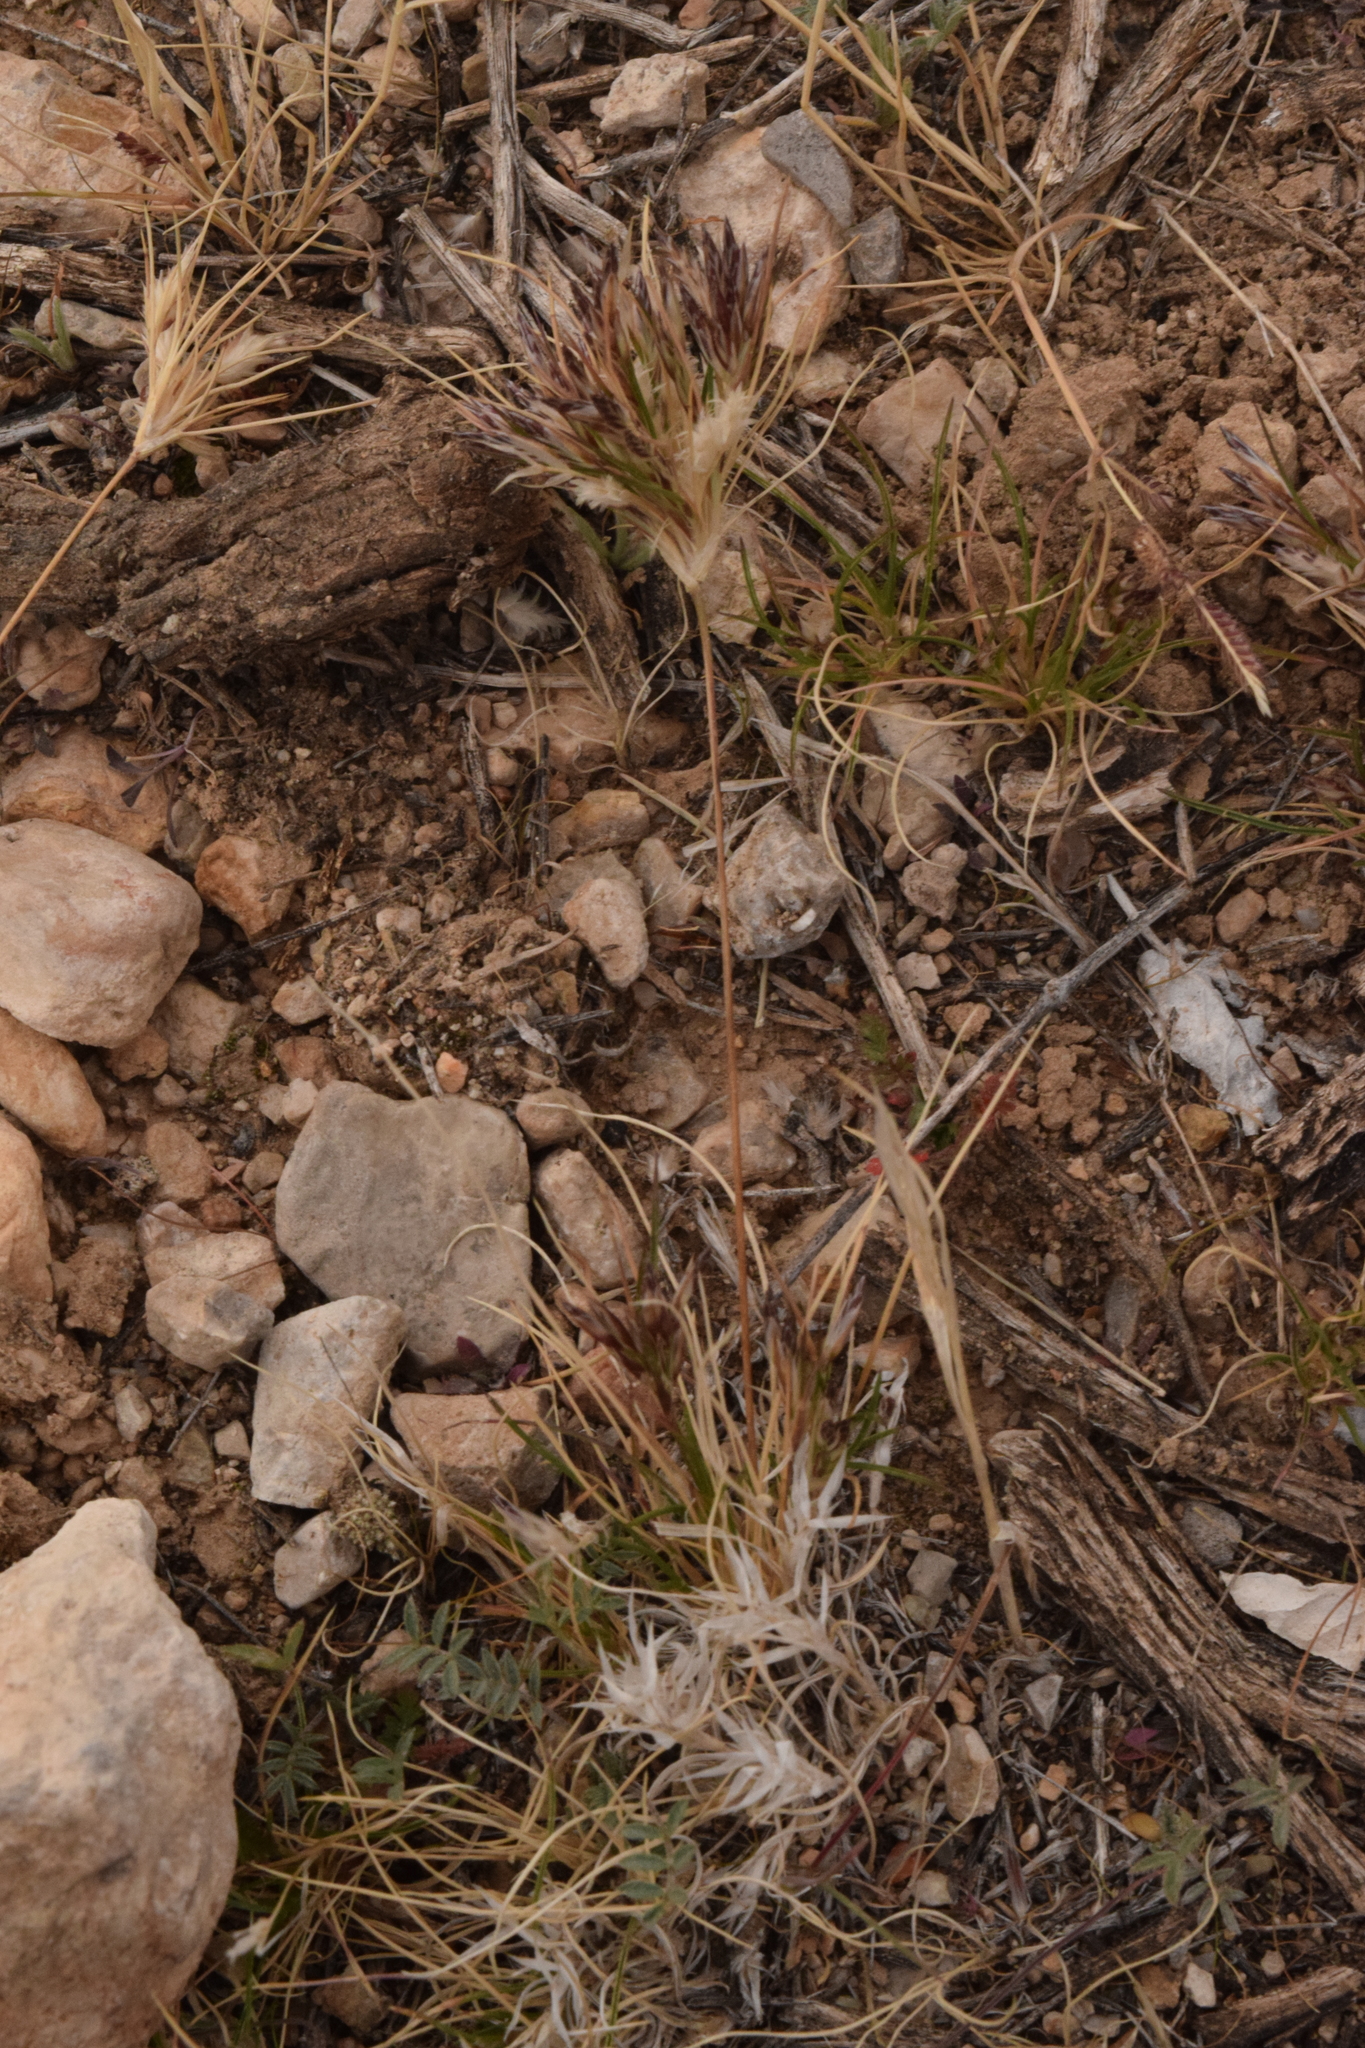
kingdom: Plantae
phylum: Tracheophyta
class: Liliopsida
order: Poales
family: Poaceae
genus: Dasyochloa
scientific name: Dasyochloa pulchella
